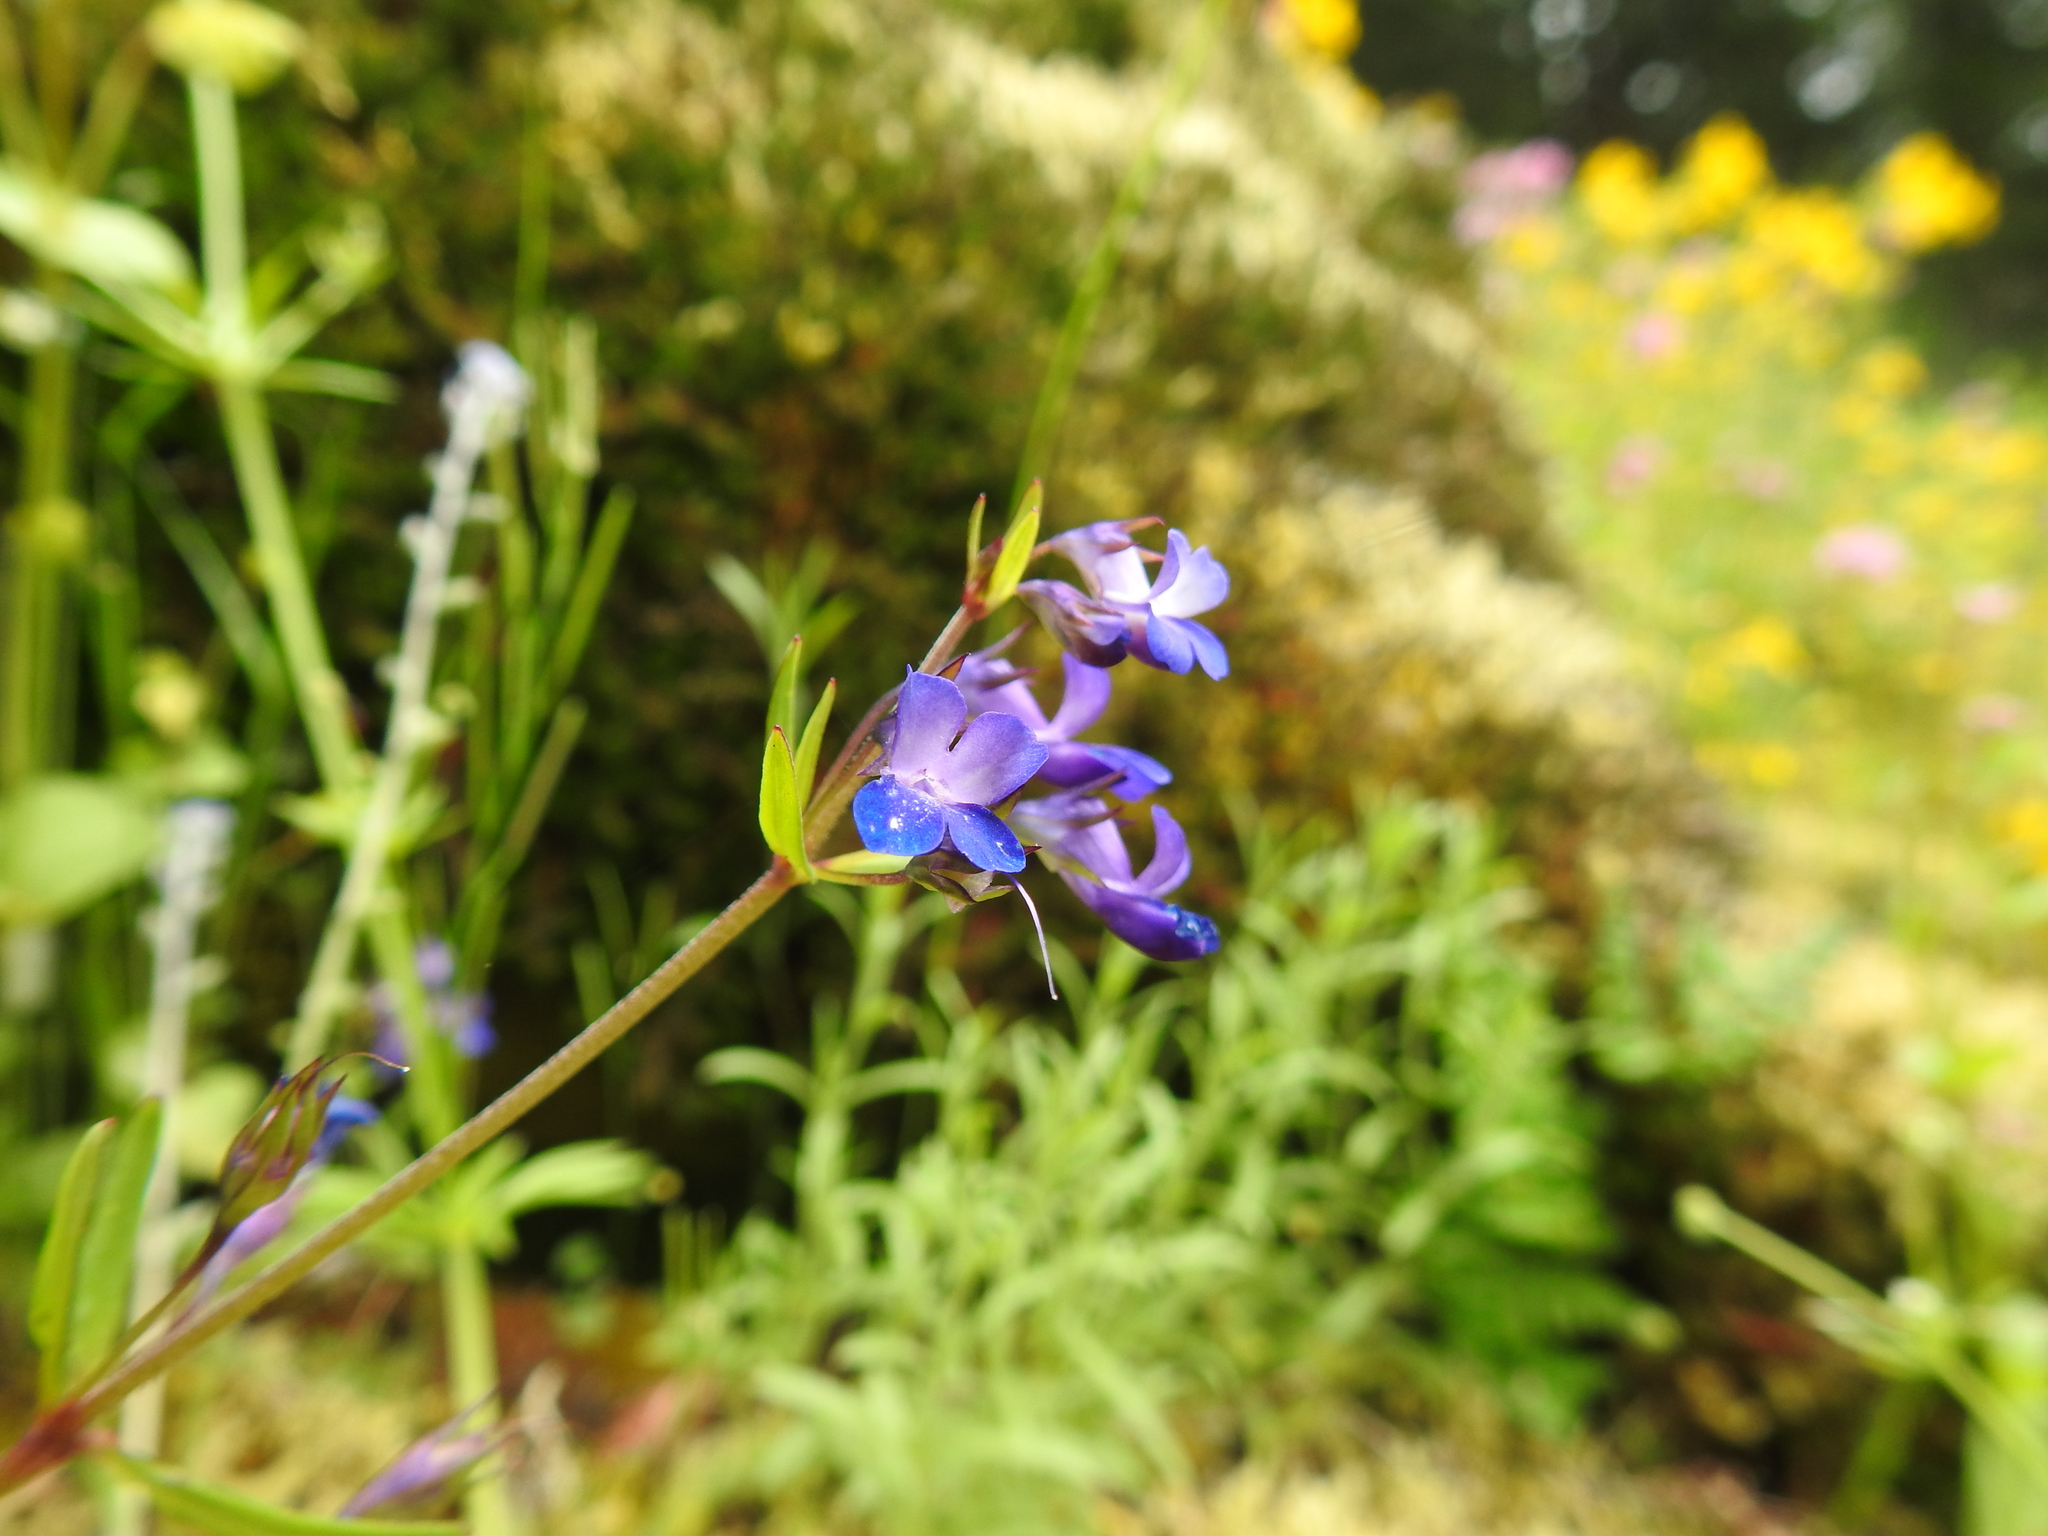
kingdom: Plantae
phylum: Tracheophyta
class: Magnoliopsida
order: Lamiales
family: Plantaginaceae
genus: Collinsia
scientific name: Collinsia grandiflora
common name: Large-flower blue-eyed-mary
